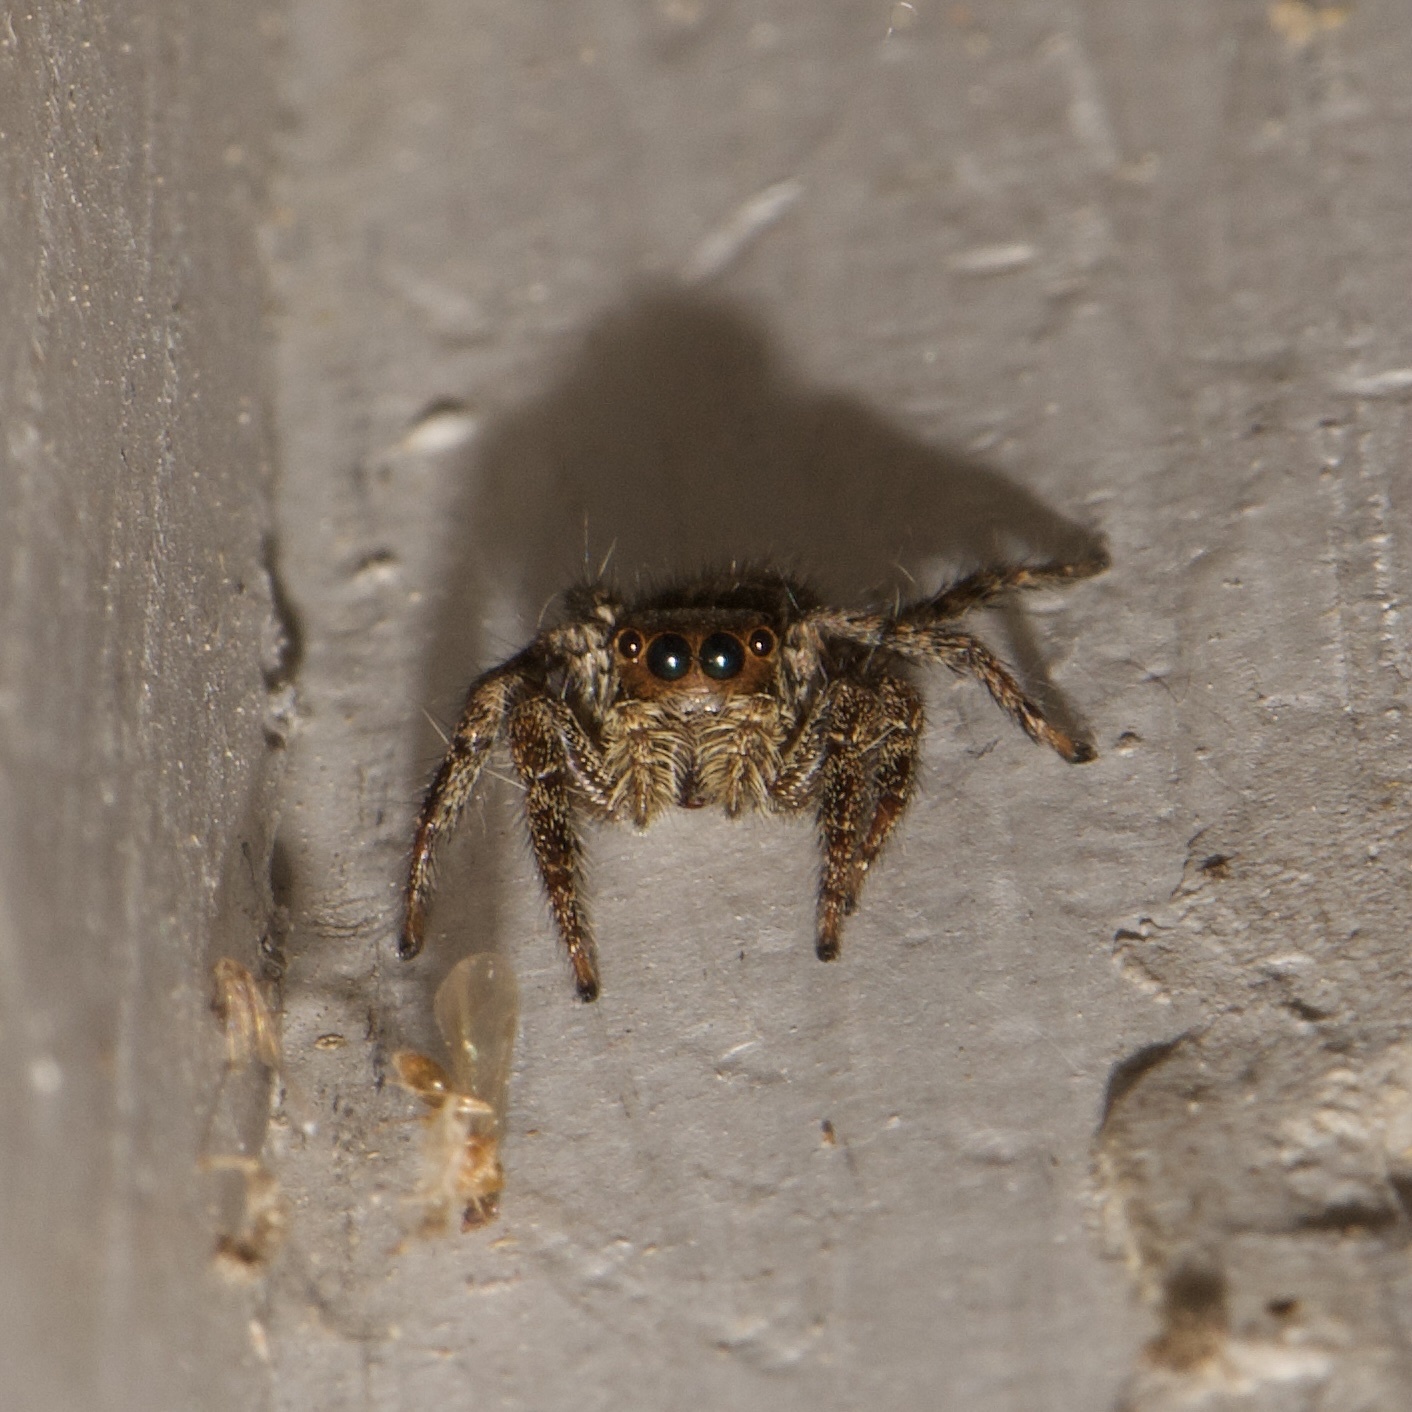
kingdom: Animalia
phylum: Arthropoda
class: Arachnida
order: Araneae
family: Salticidae
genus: Plexippus
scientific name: Plexippus paykulli
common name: Pantropical jumper
